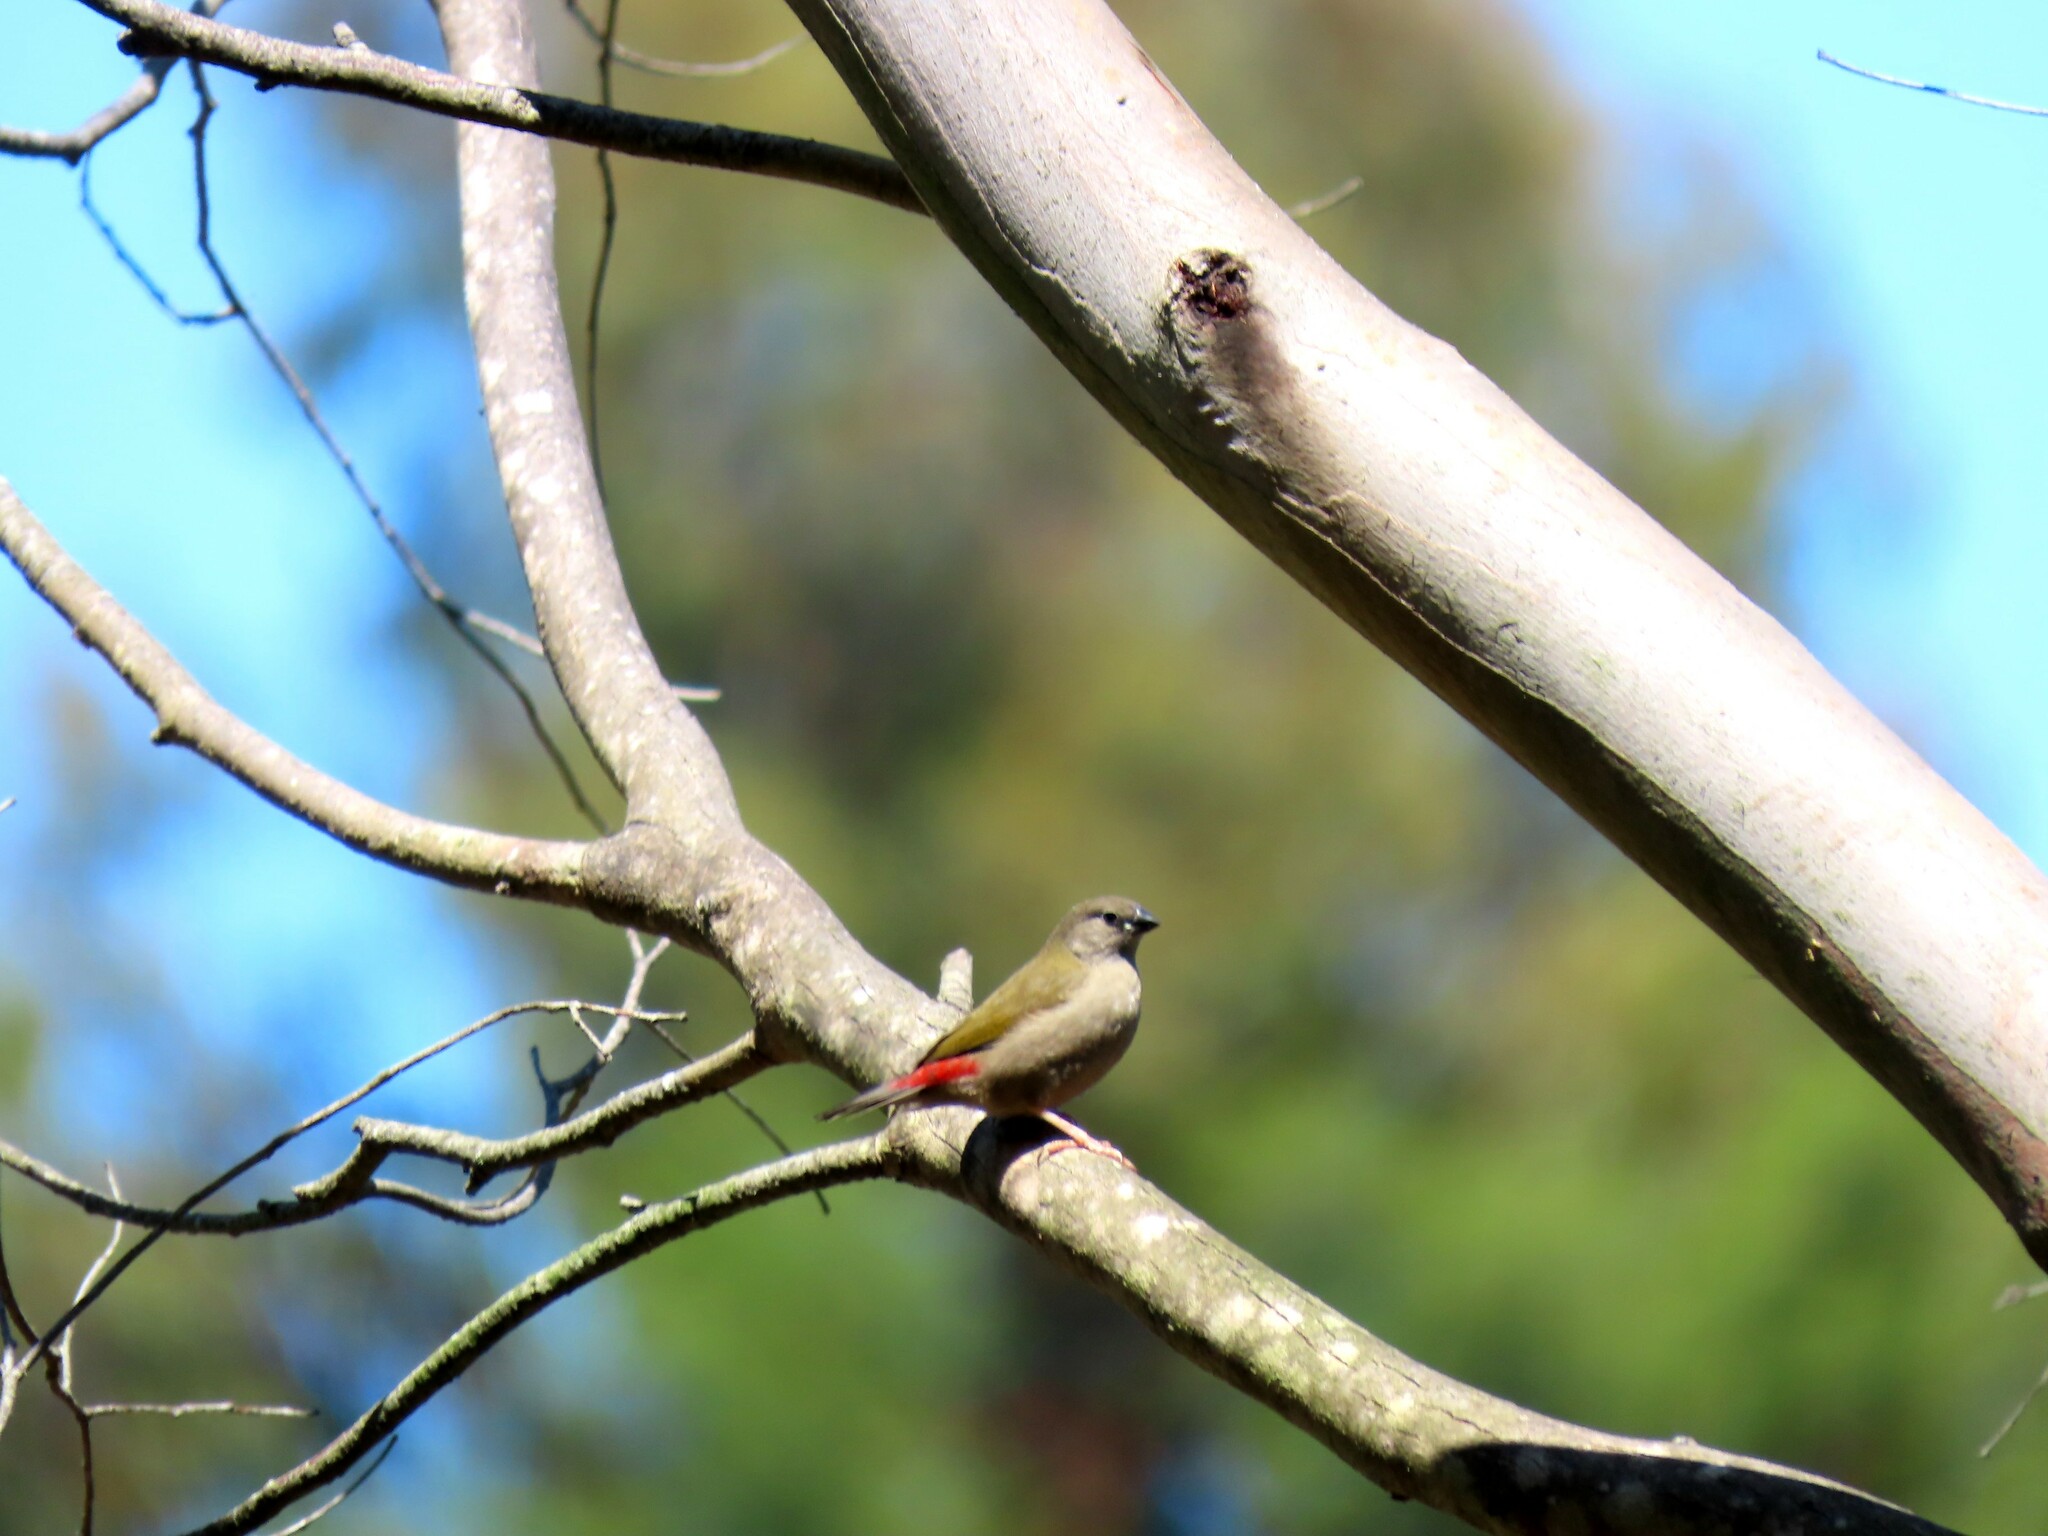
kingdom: Animalia
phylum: Chordata
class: Aves
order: Passeriformes
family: Estrildidae
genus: Neochmia
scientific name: Neochmia temporalis
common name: Red-browed finch
